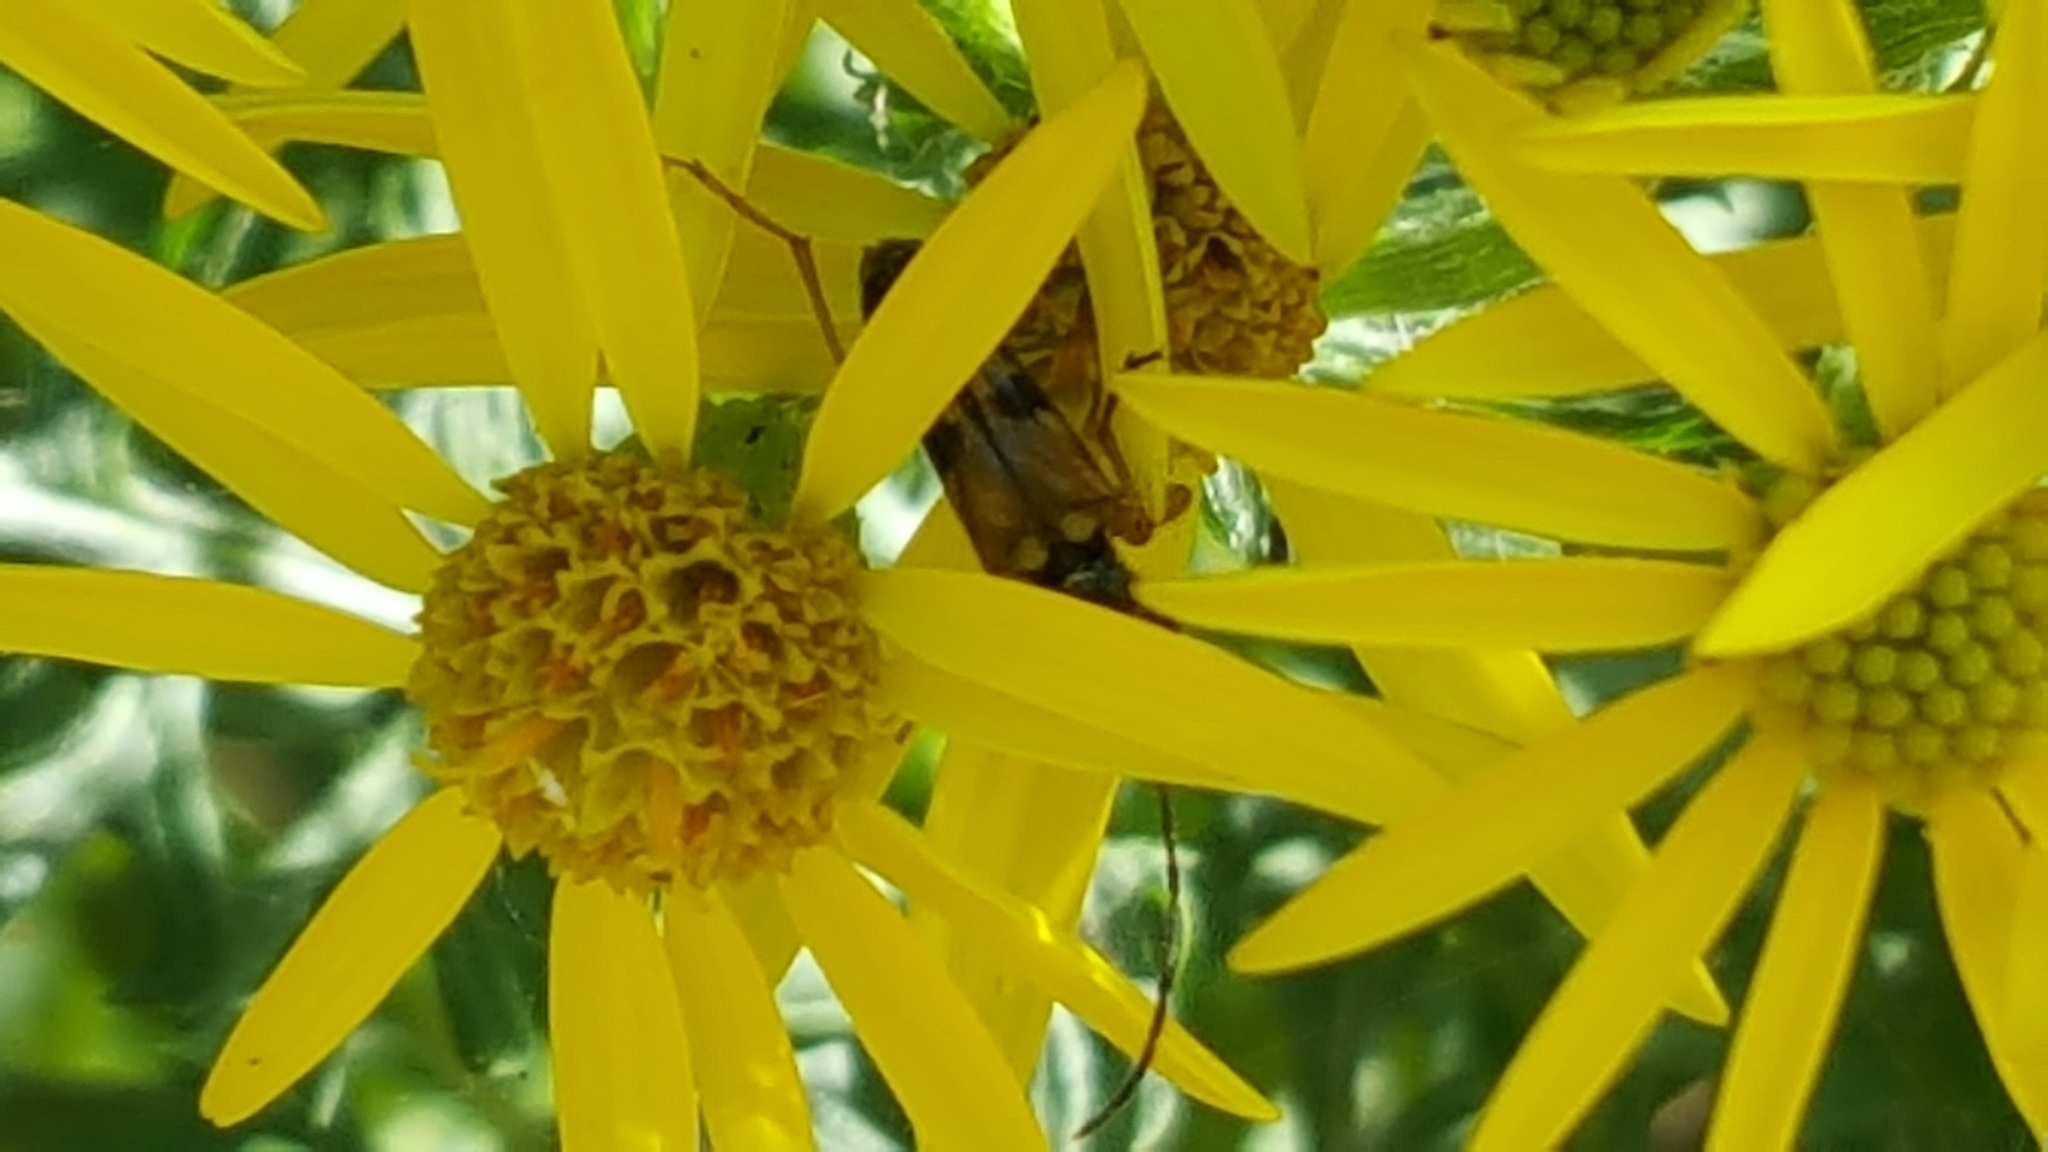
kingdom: Animalia
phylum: Arthropoda
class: Insecta
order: Coleoptera
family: Cerambycidae
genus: Xestoleptura
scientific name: Xestoleptura crassipes
